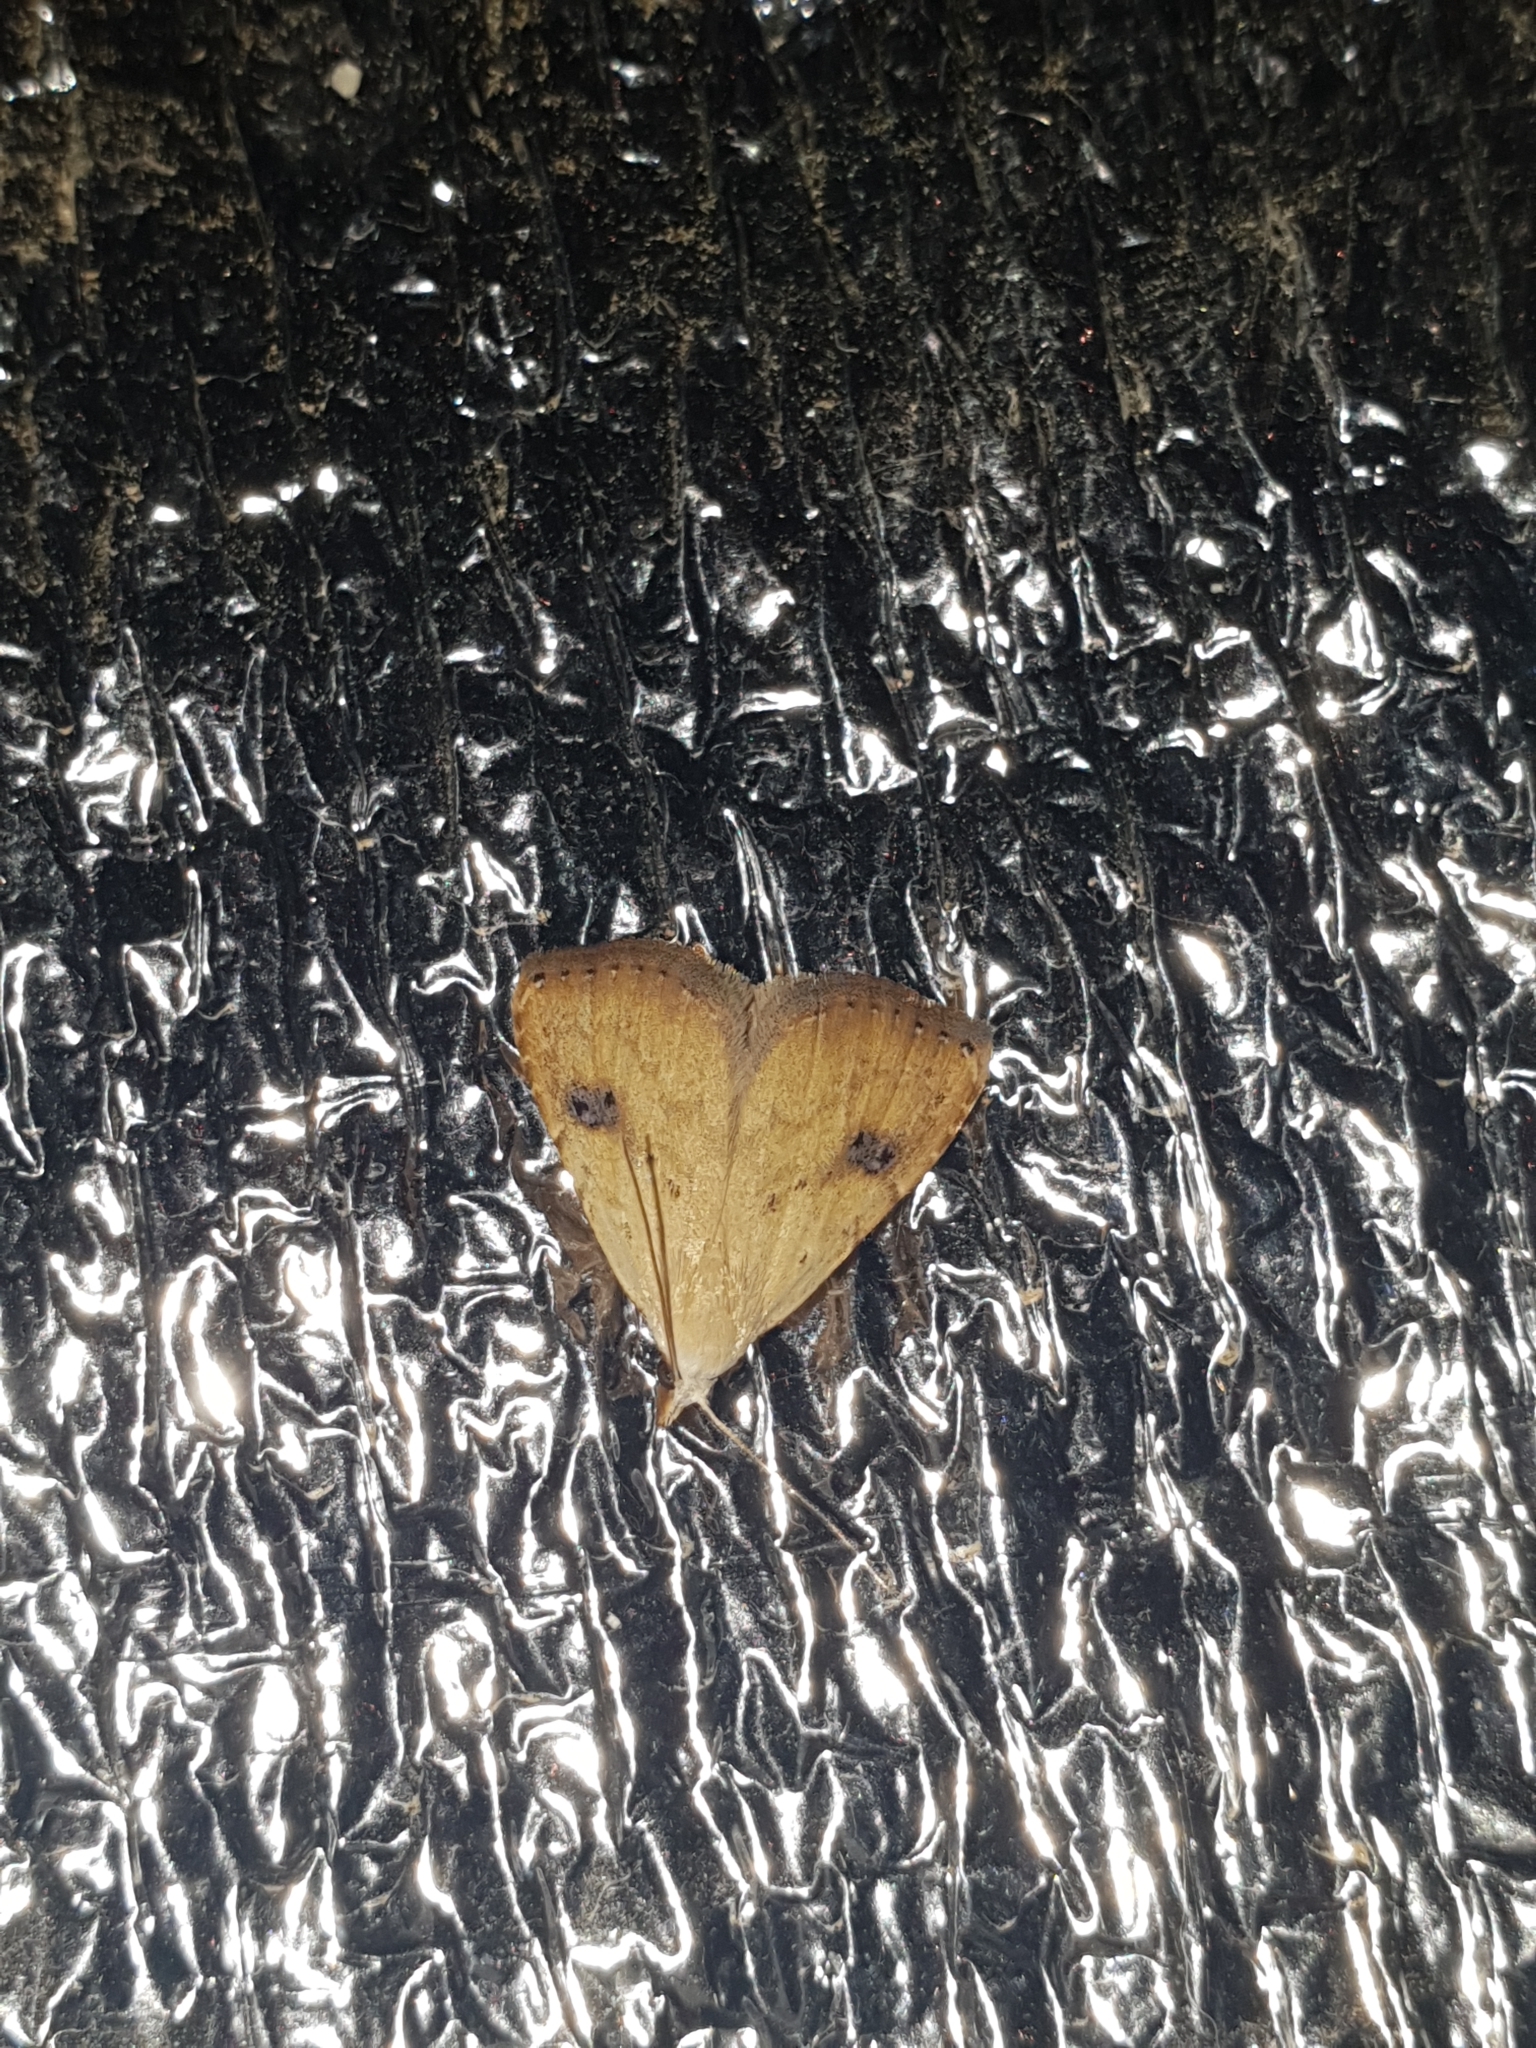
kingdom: Animalia
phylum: Arthropoda
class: Insecta
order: Lepidoptera
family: Erebidae
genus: Rivula
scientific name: Rivula sericealis
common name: Straw dot
